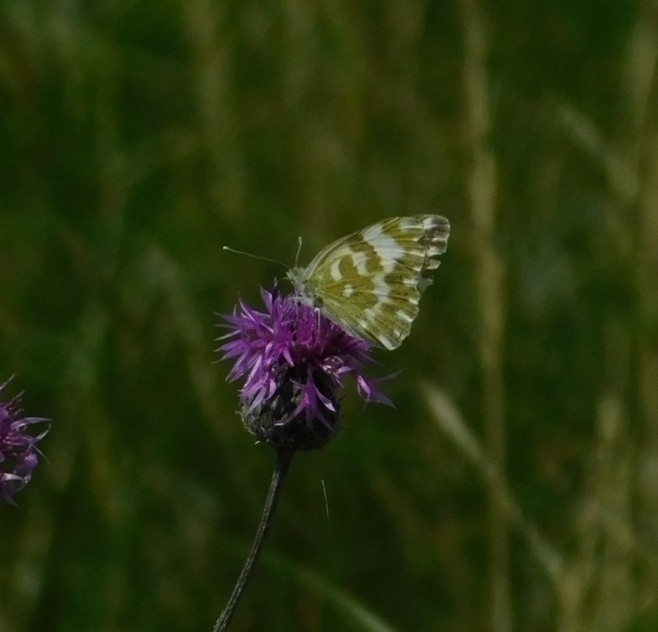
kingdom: Animalia
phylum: Arthropoda
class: Insecta
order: Lepidoptera
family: Pieridae
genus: Pontia
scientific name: Pontia edusa
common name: Eastern bath white
